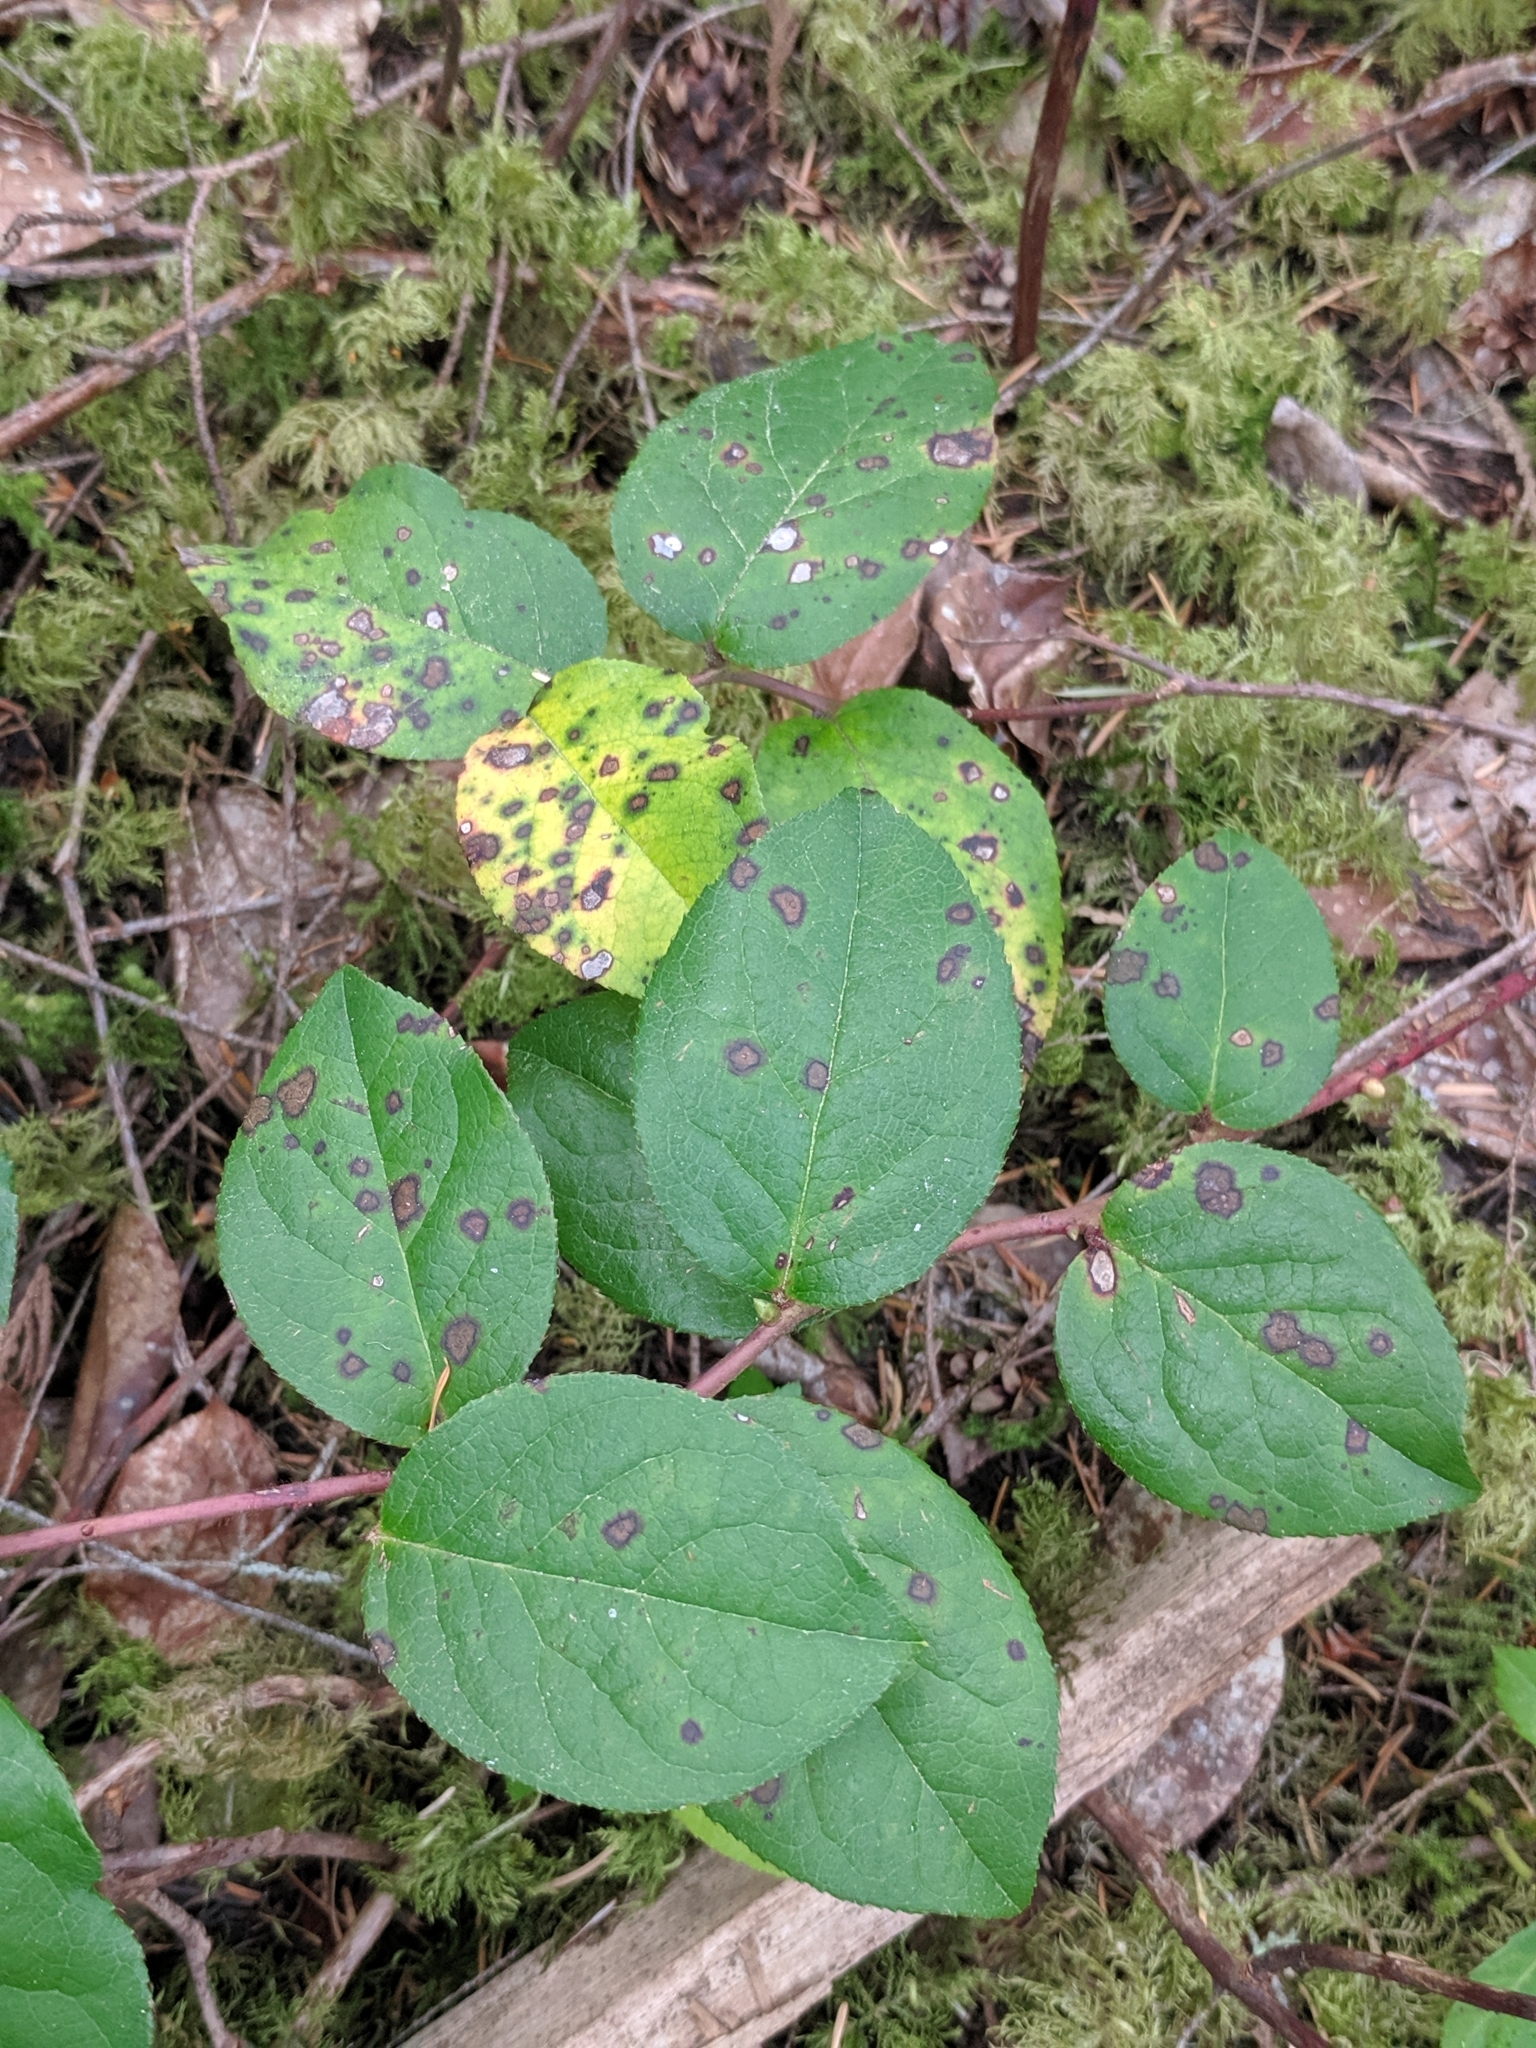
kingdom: Plantae
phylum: Tracheophyta
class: Magnoliopsida
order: Ericales
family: Ericaceae
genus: Gaultheria
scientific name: Gaultheria shallon
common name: Shallon
